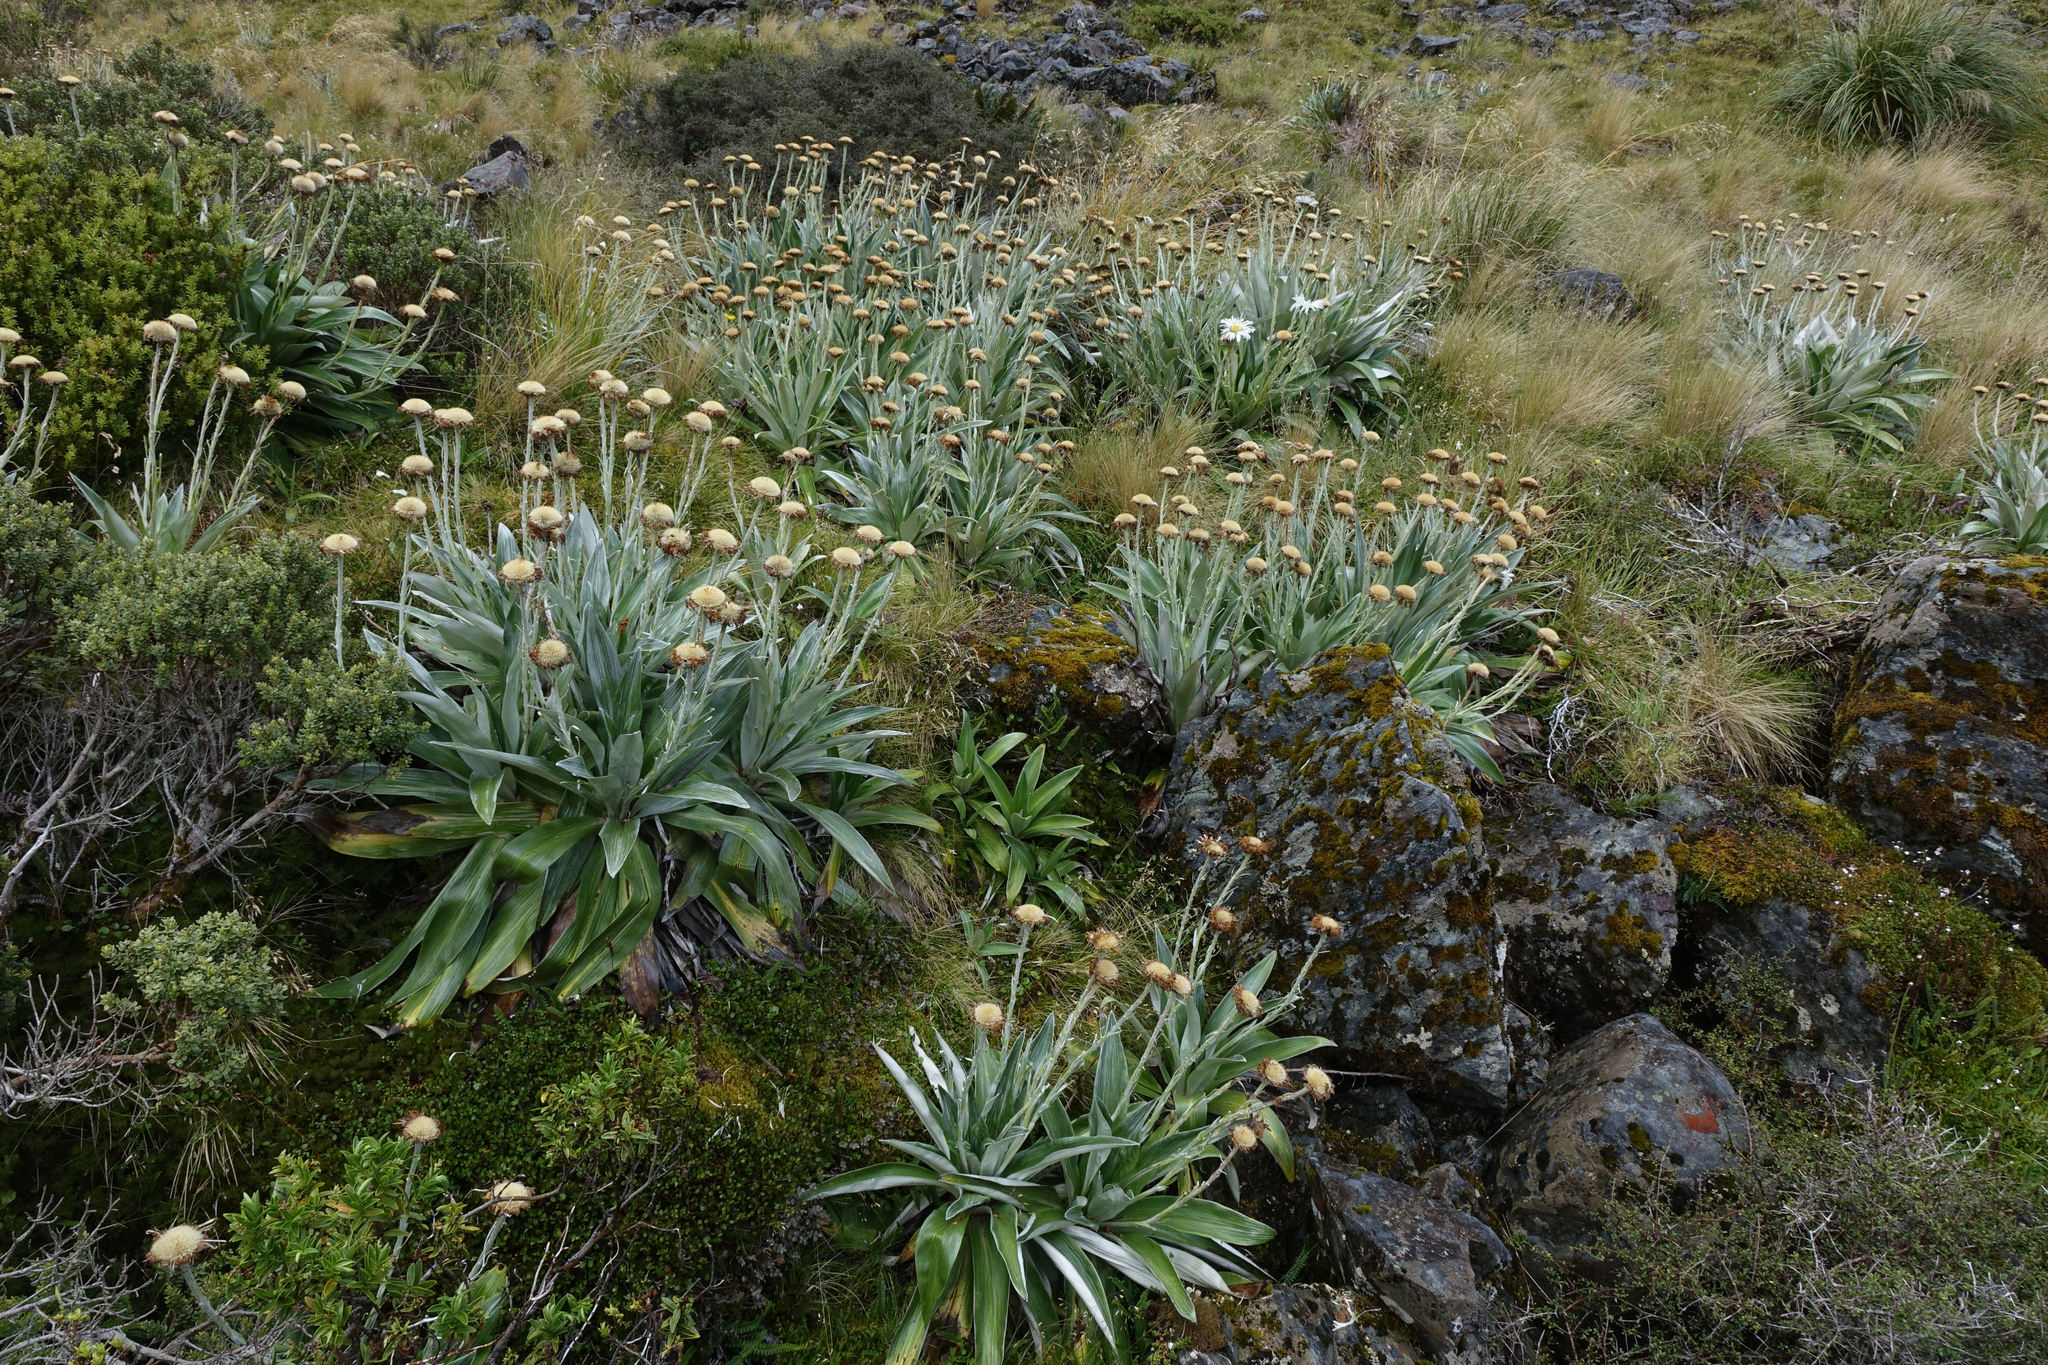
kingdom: Plantae
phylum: Tracheophyta
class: Magnoliopsida
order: Asterales
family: Asteraceae
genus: Celmisia
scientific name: Celmisia semicordata
